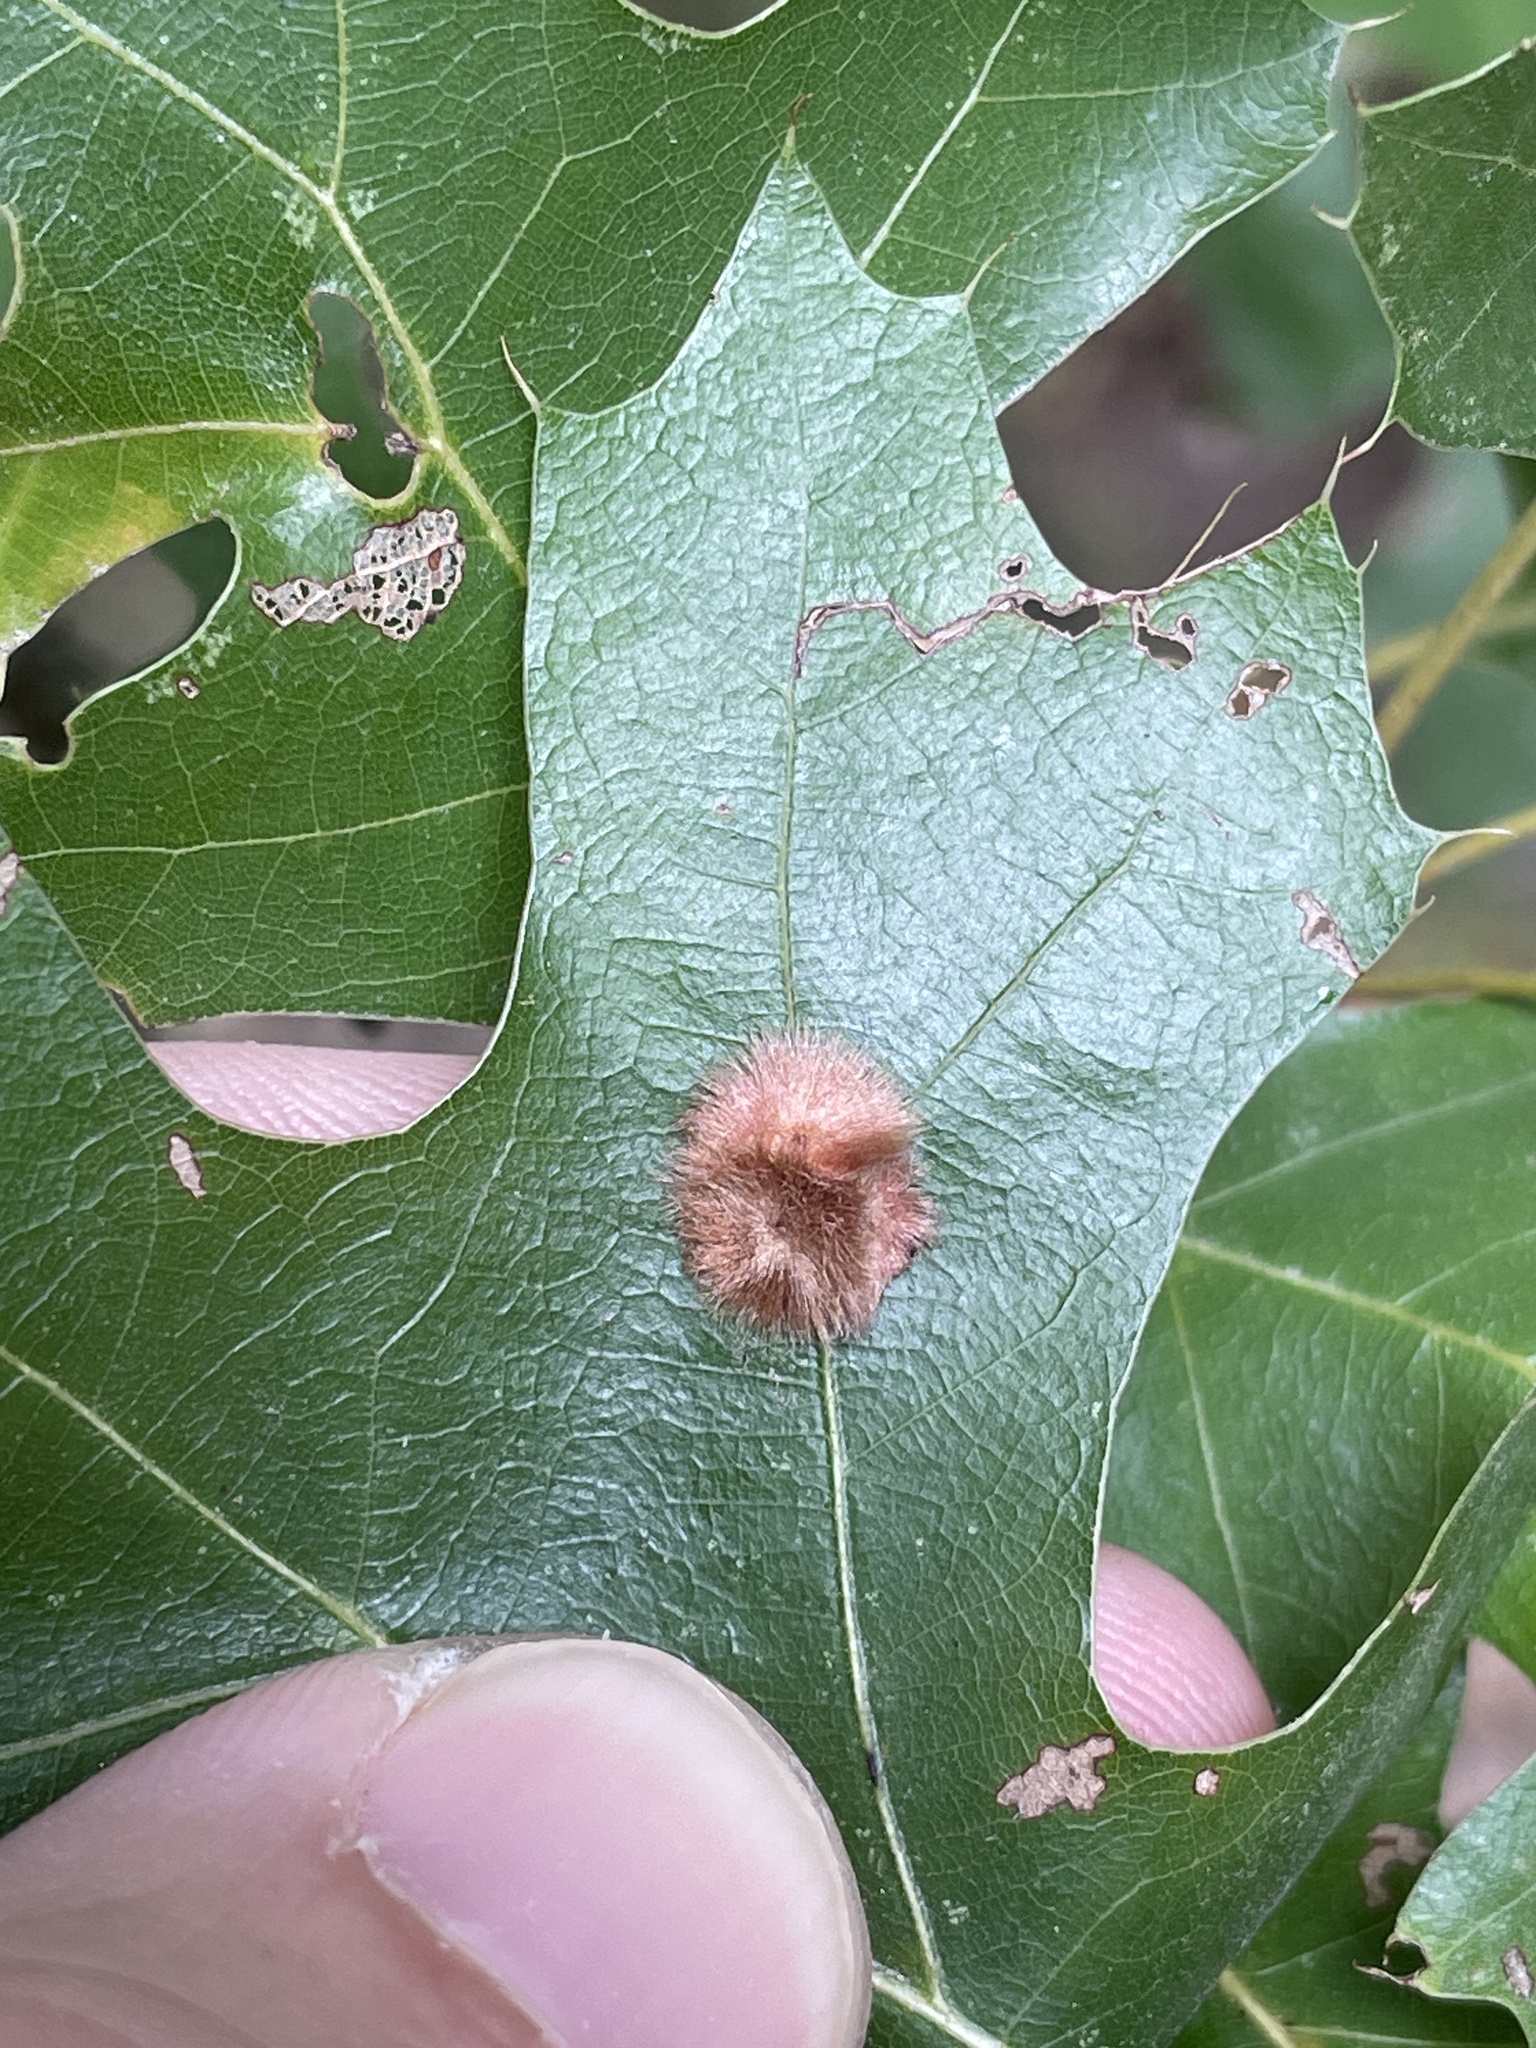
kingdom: Animalia
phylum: Arthropoda
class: Insecta
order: Hymenoptera
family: Cynipidae
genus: Callirhytis
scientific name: Callirhytis
